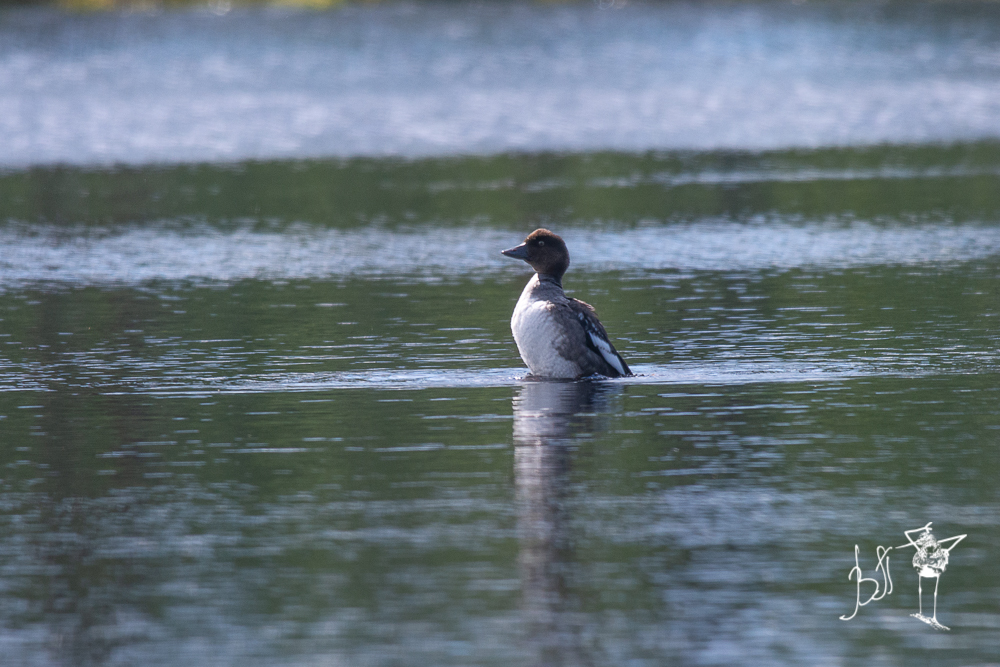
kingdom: Animalia
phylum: Chordata
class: Aves
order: Anseriformes
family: Anatidae
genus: Bucephala
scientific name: Bucephala clangula
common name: Common goldeneye
